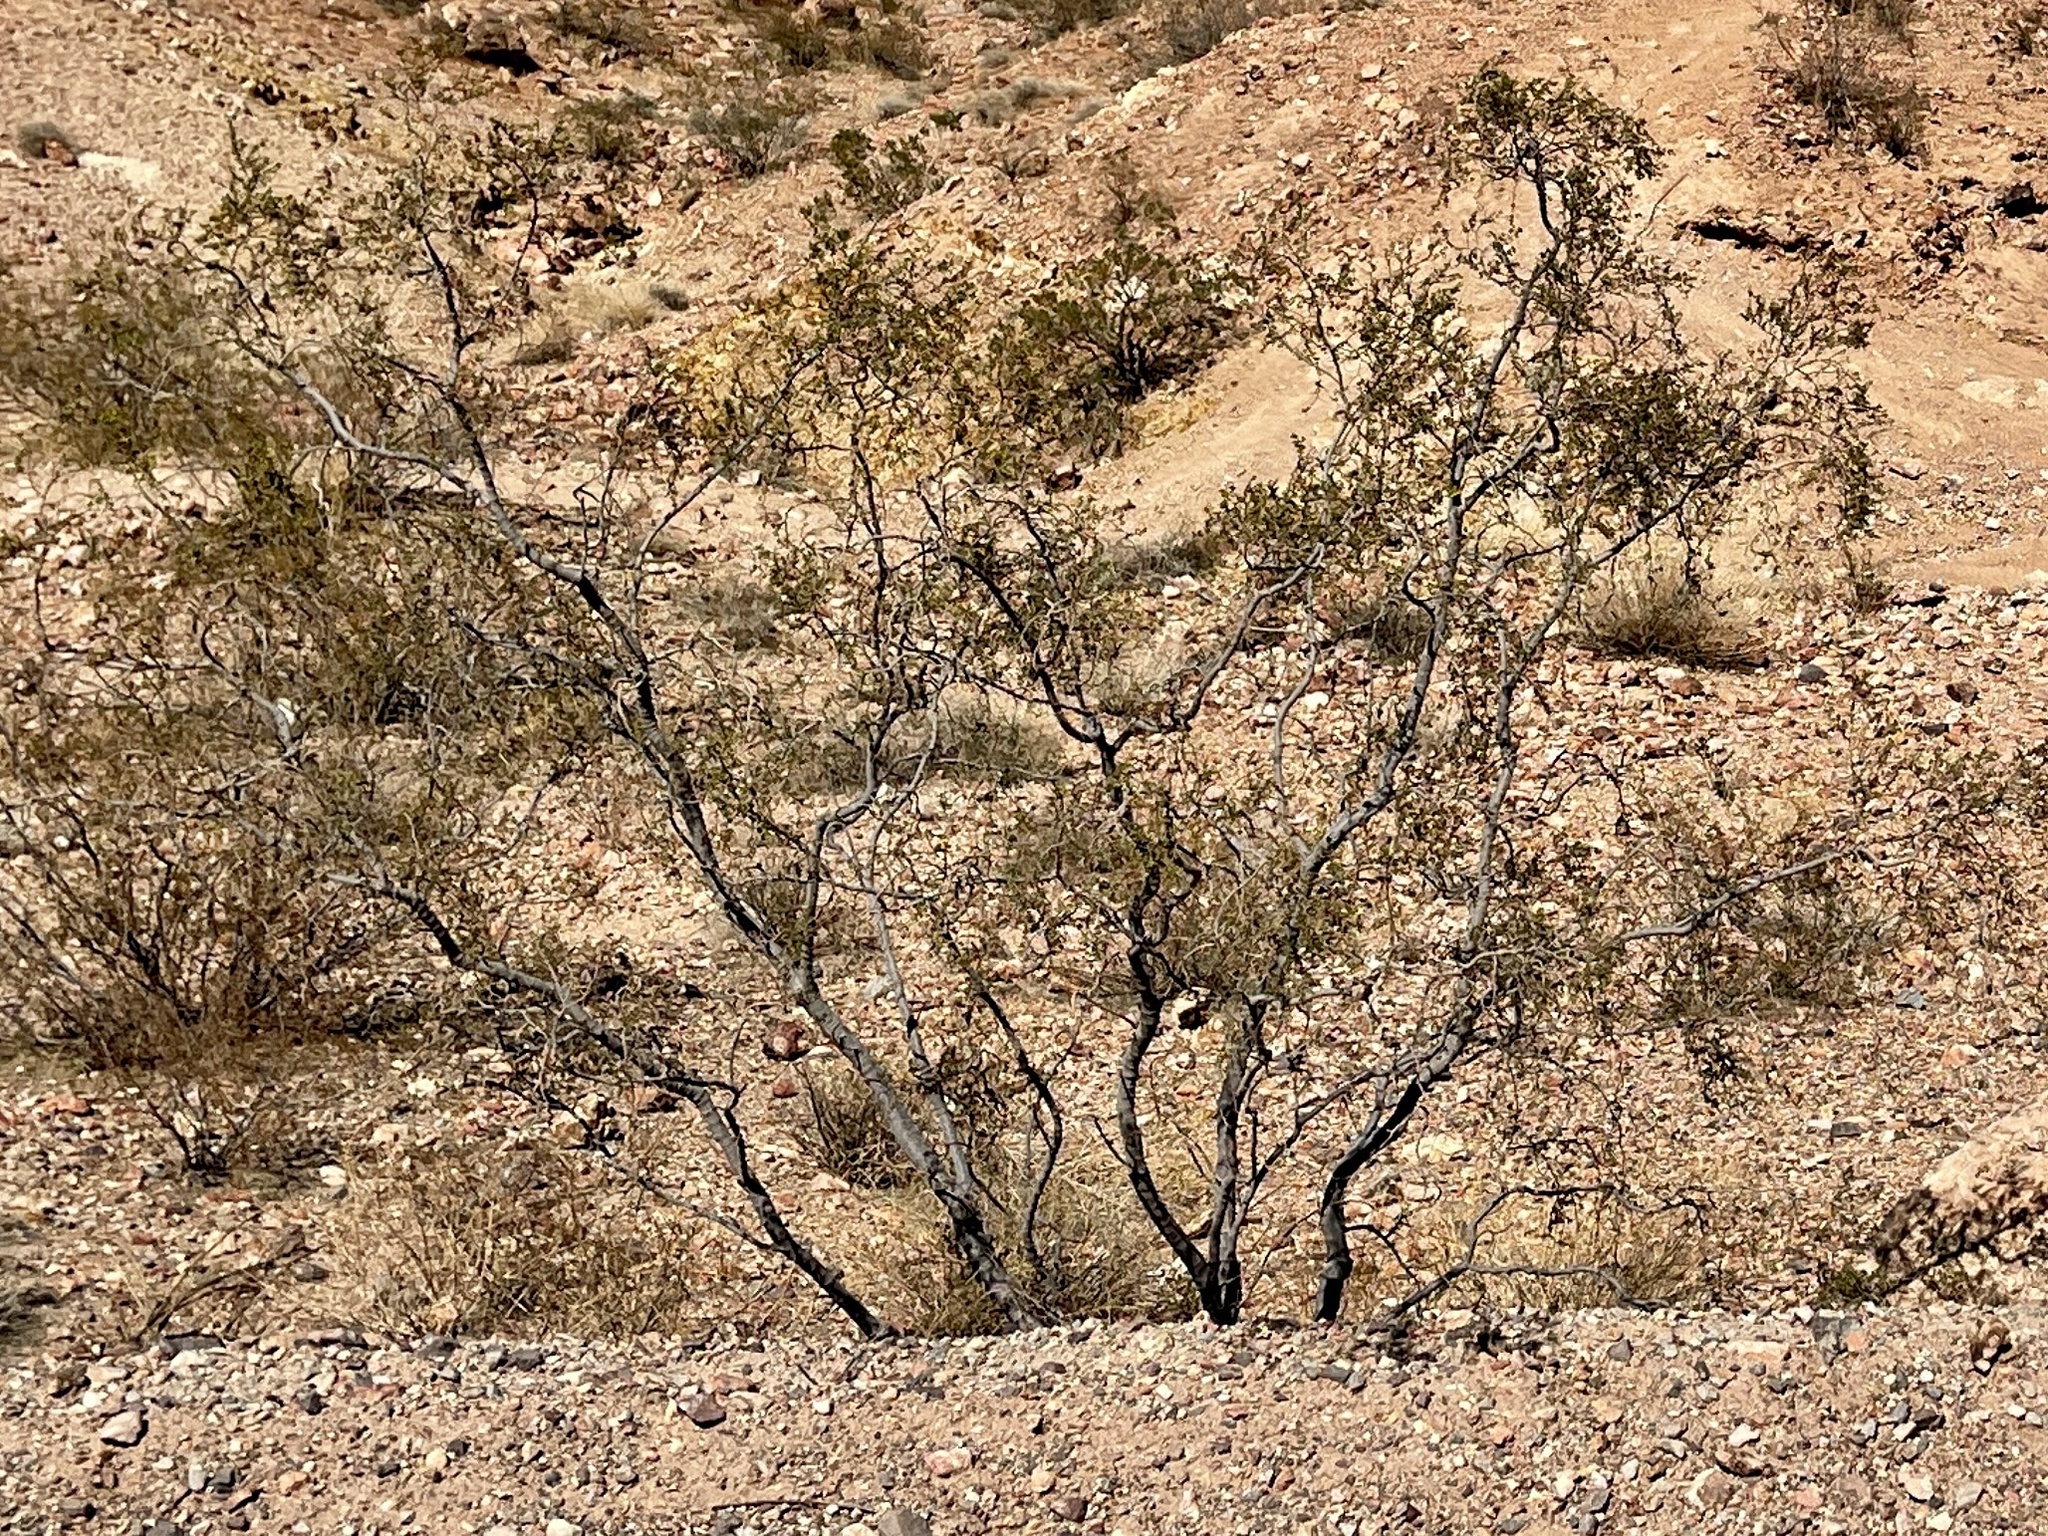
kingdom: Plantae
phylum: Tracheophyta
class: Magnoliopsida
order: Zygophyllales
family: Zygophyllaceae
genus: Larrea
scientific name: Larrea tridentata
